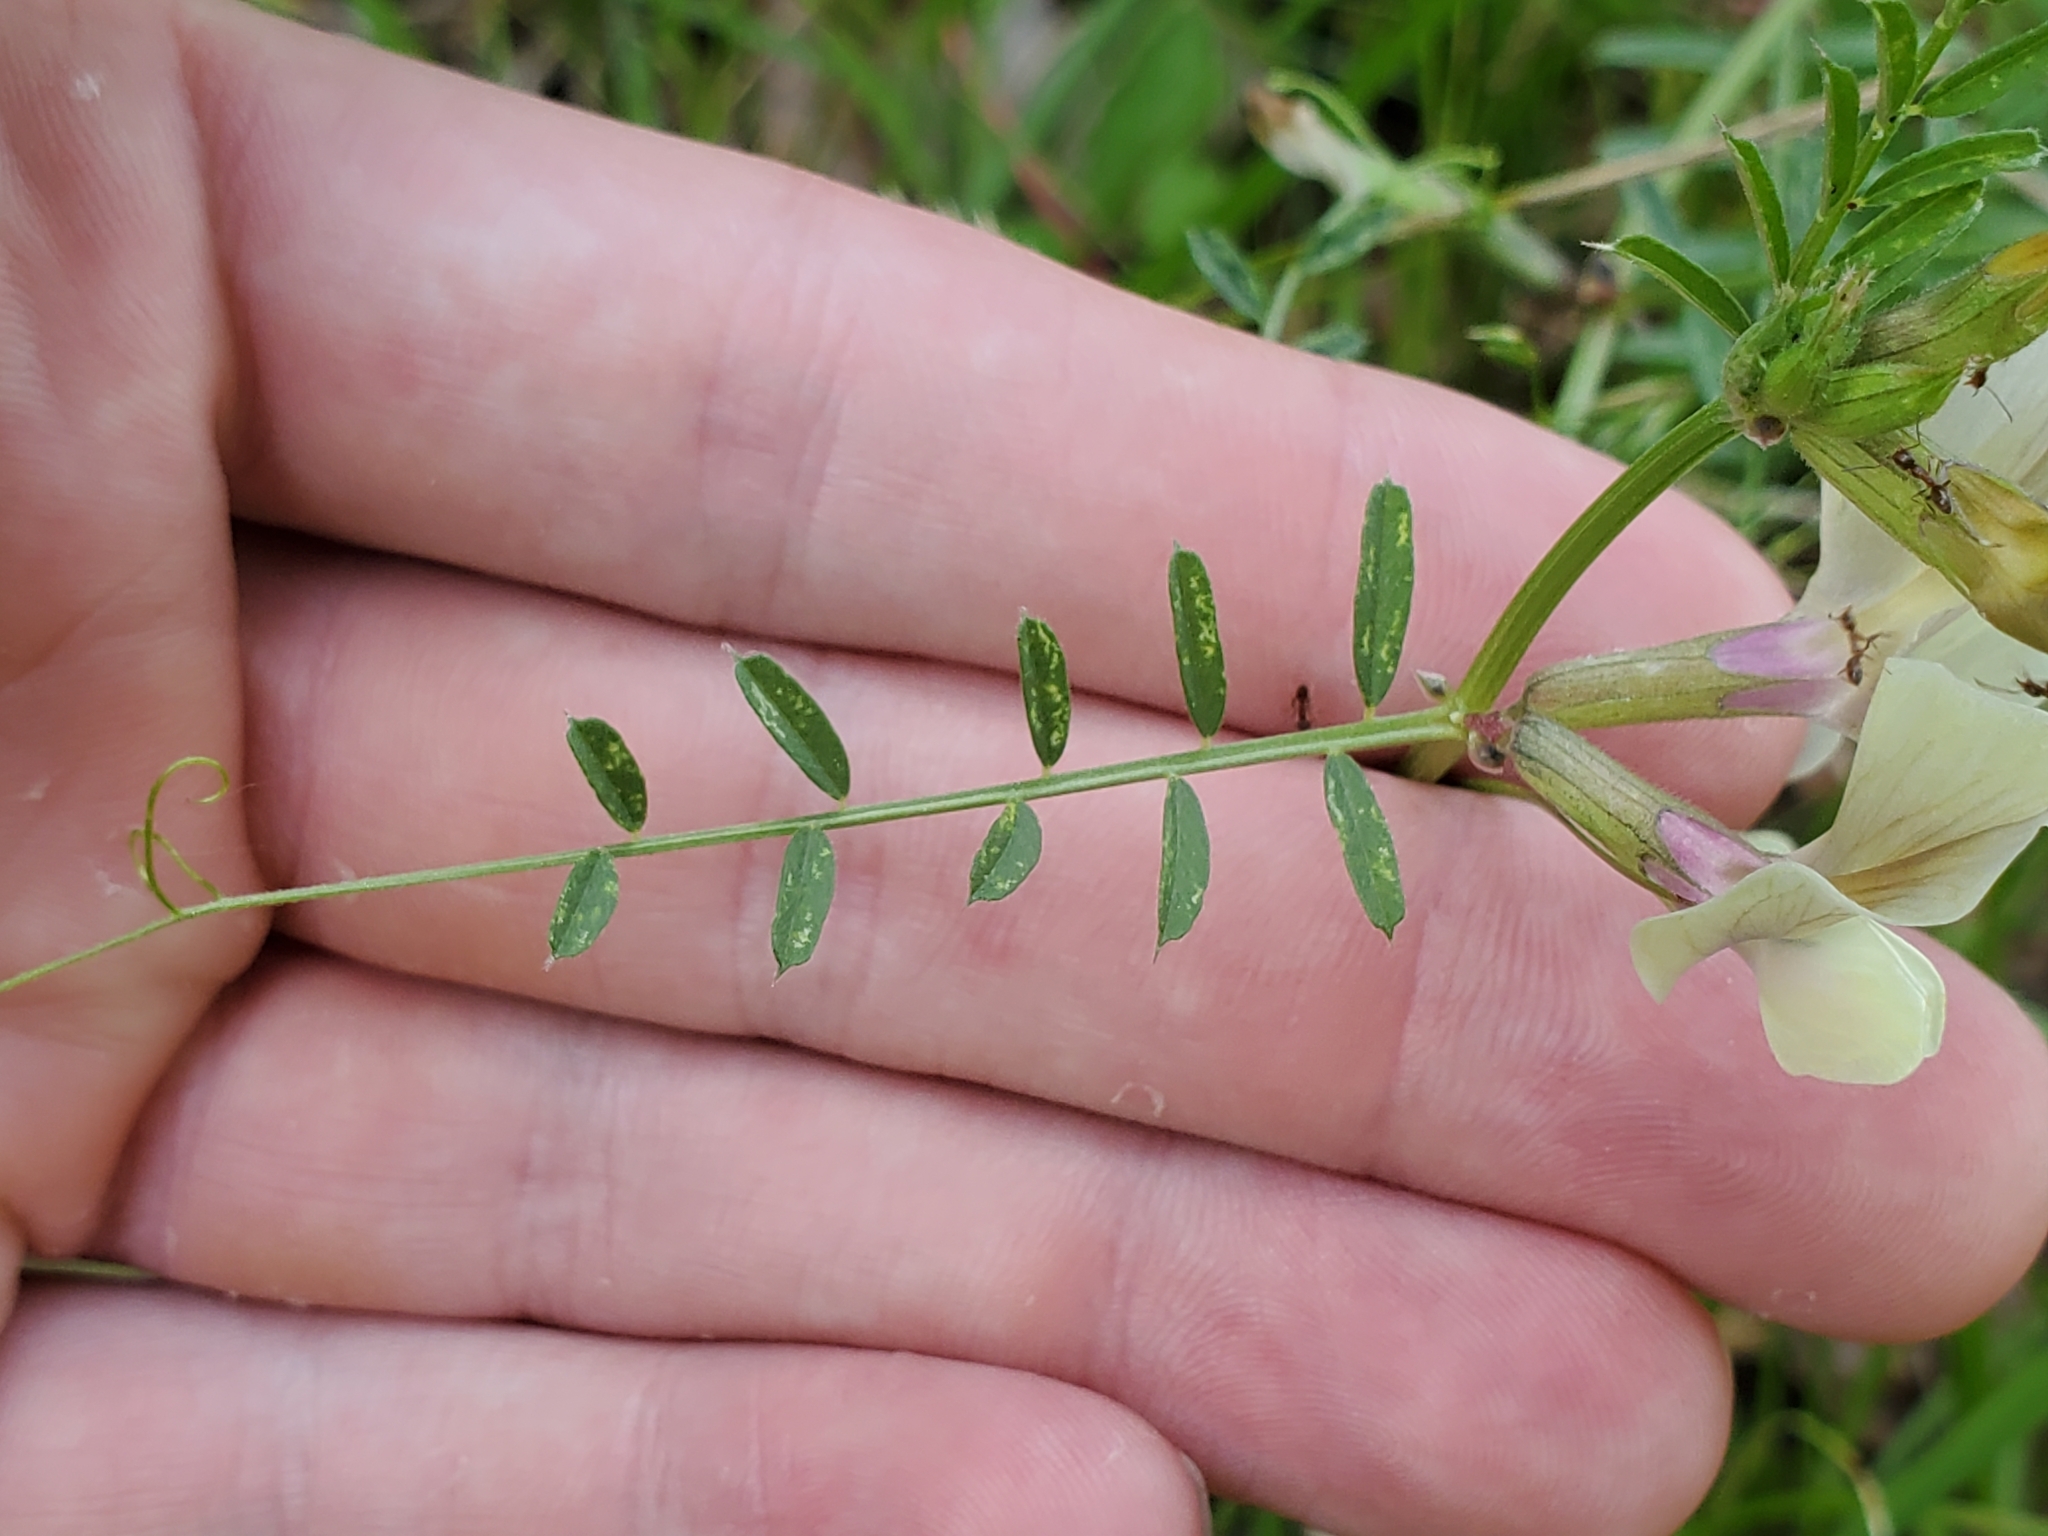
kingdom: Plantae
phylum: Tracheophyta
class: Magnoliopsida
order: Fabales
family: Fabaceae
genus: Vicia
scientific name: Vicia grandiflora
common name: Large yellow vetch
